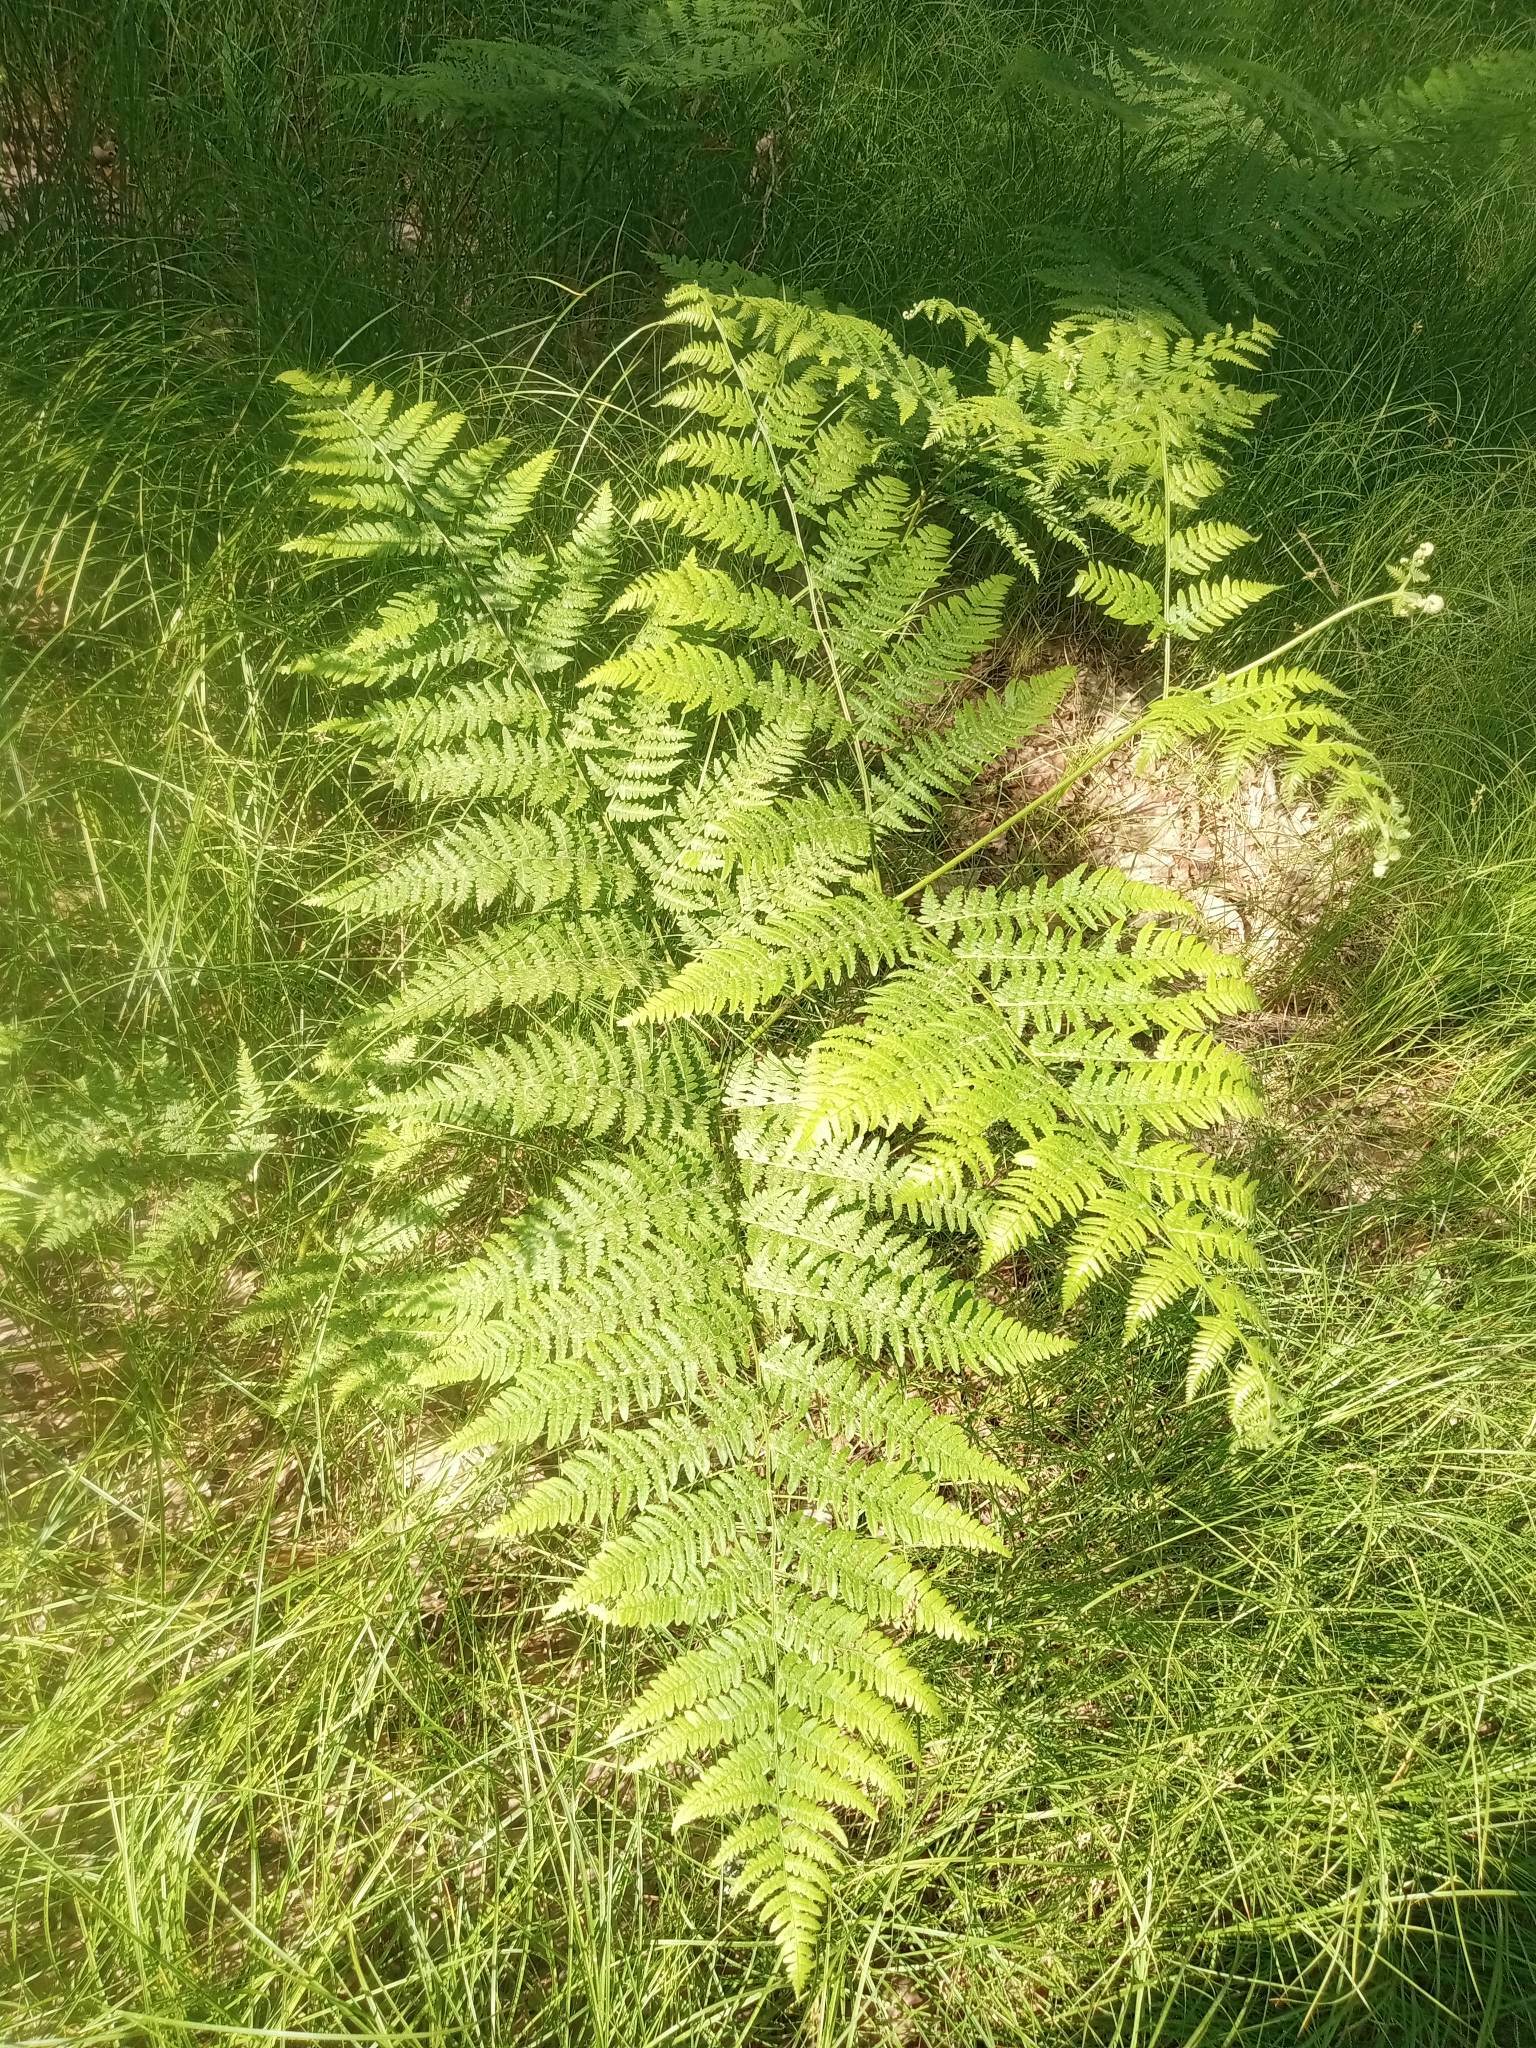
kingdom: Plantae
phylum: Tracheophyta
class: Polypodiopsida
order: Polypodiales
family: Dennstaedtiaceae
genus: Pteridium
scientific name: Pteridium aquilinum
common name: Bracken
